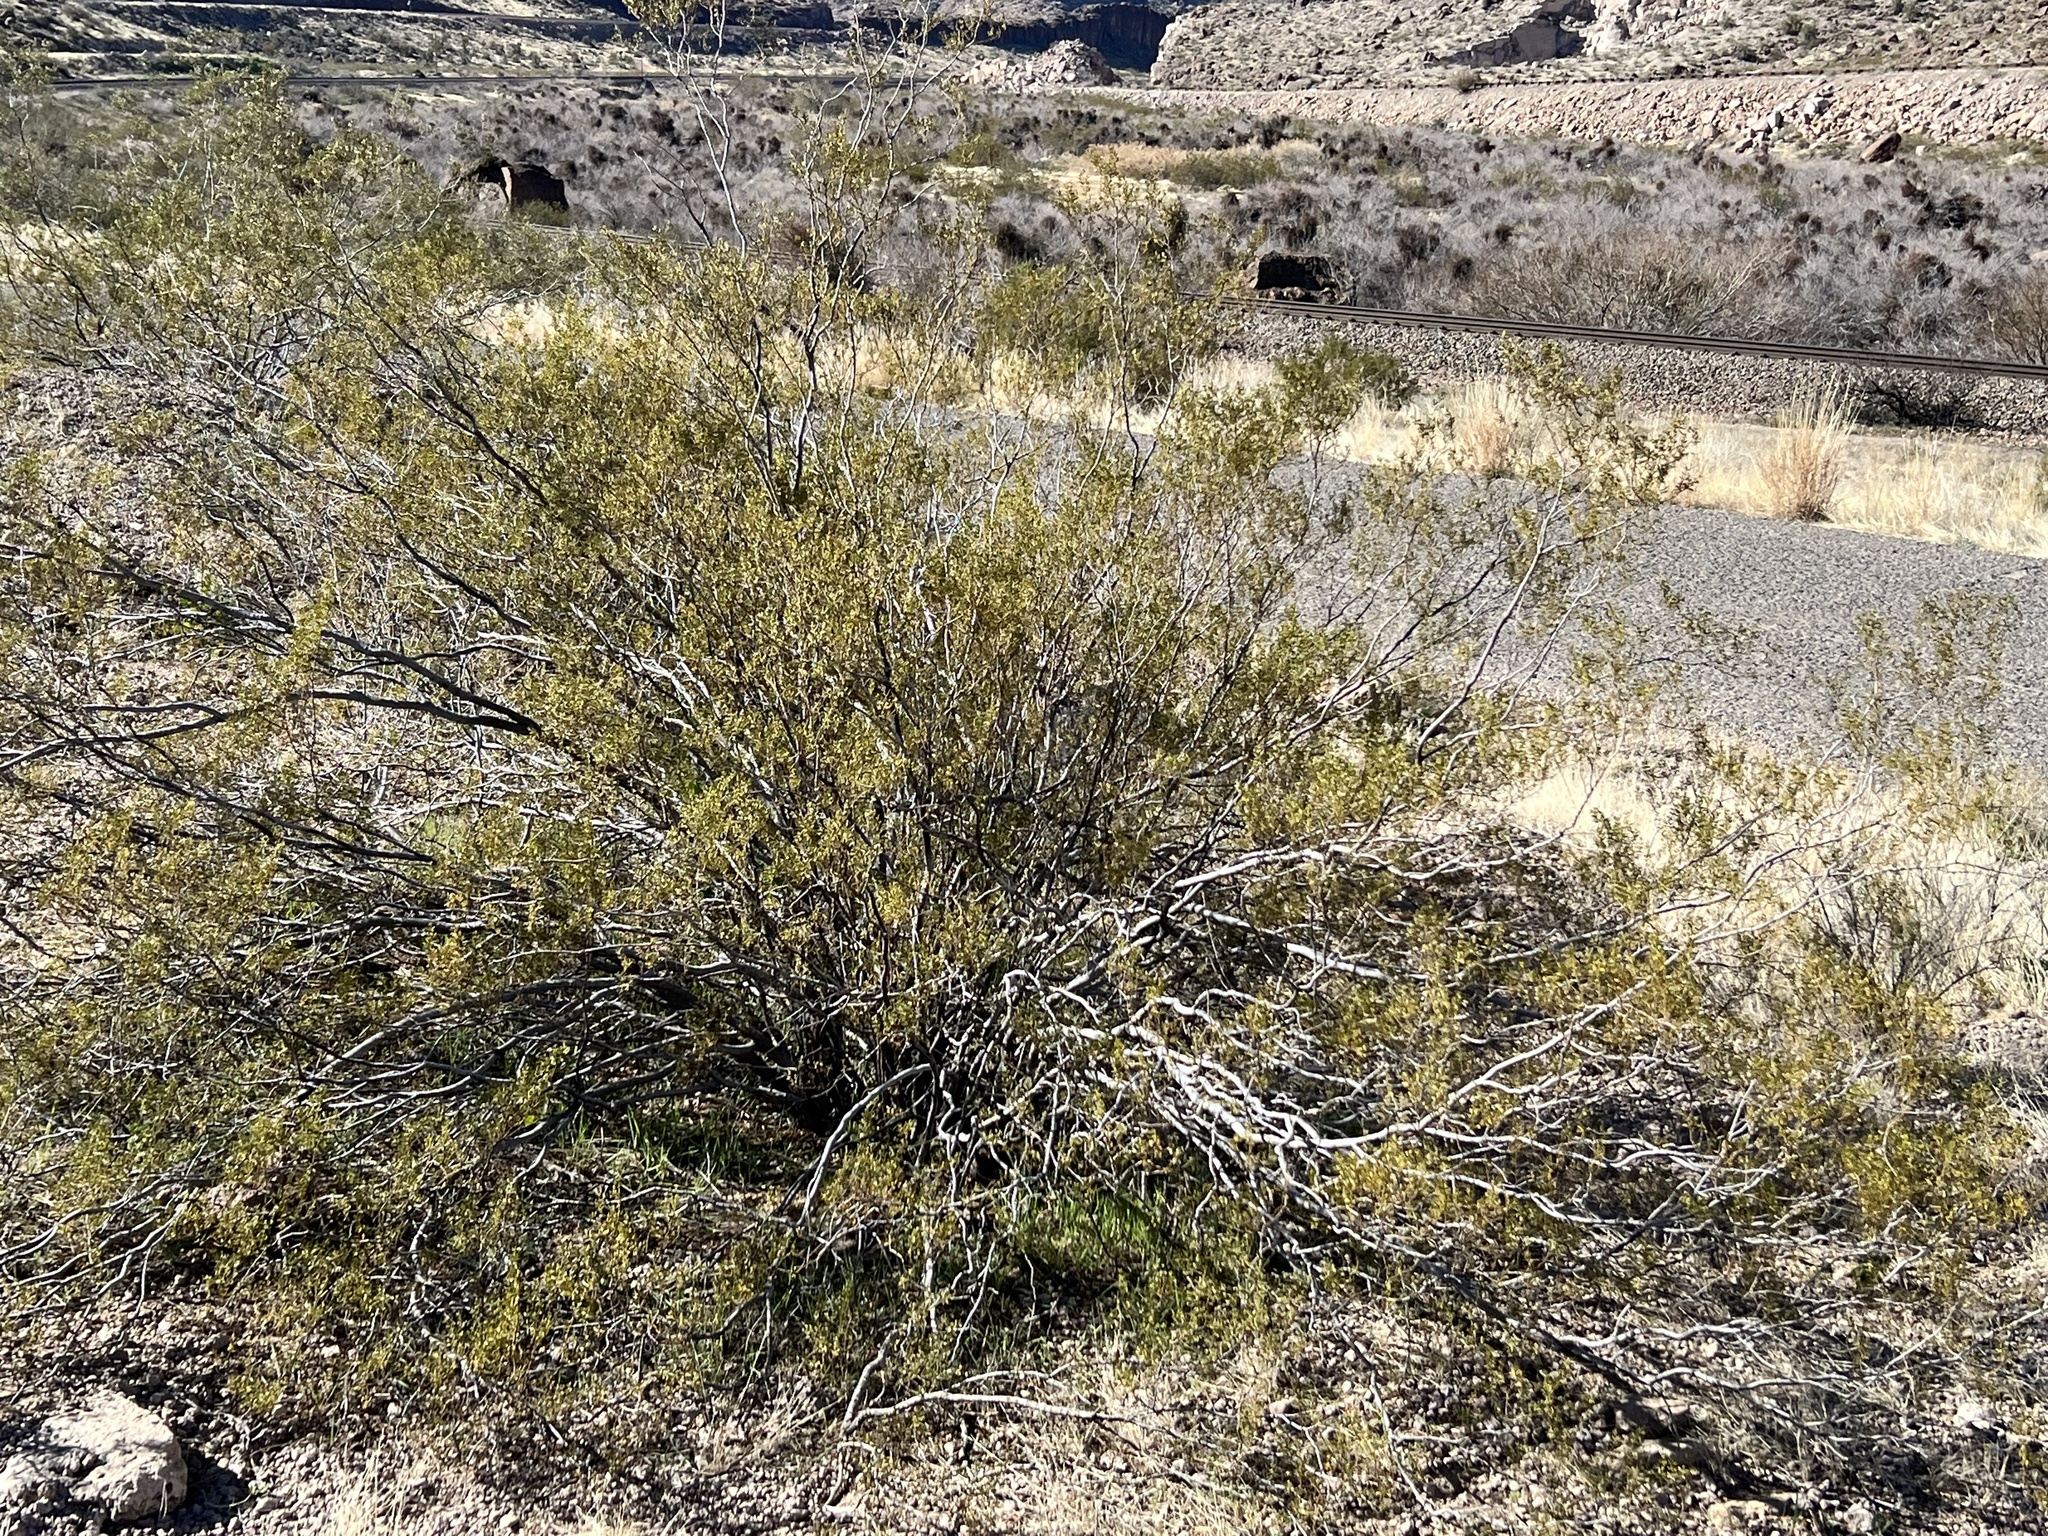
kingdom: Plantae
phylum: Tracheophyta
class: Magnoliopsida
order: Zygophyllales
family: Zygophyllaceae
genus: Larrea
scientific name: Larrea tridentata
